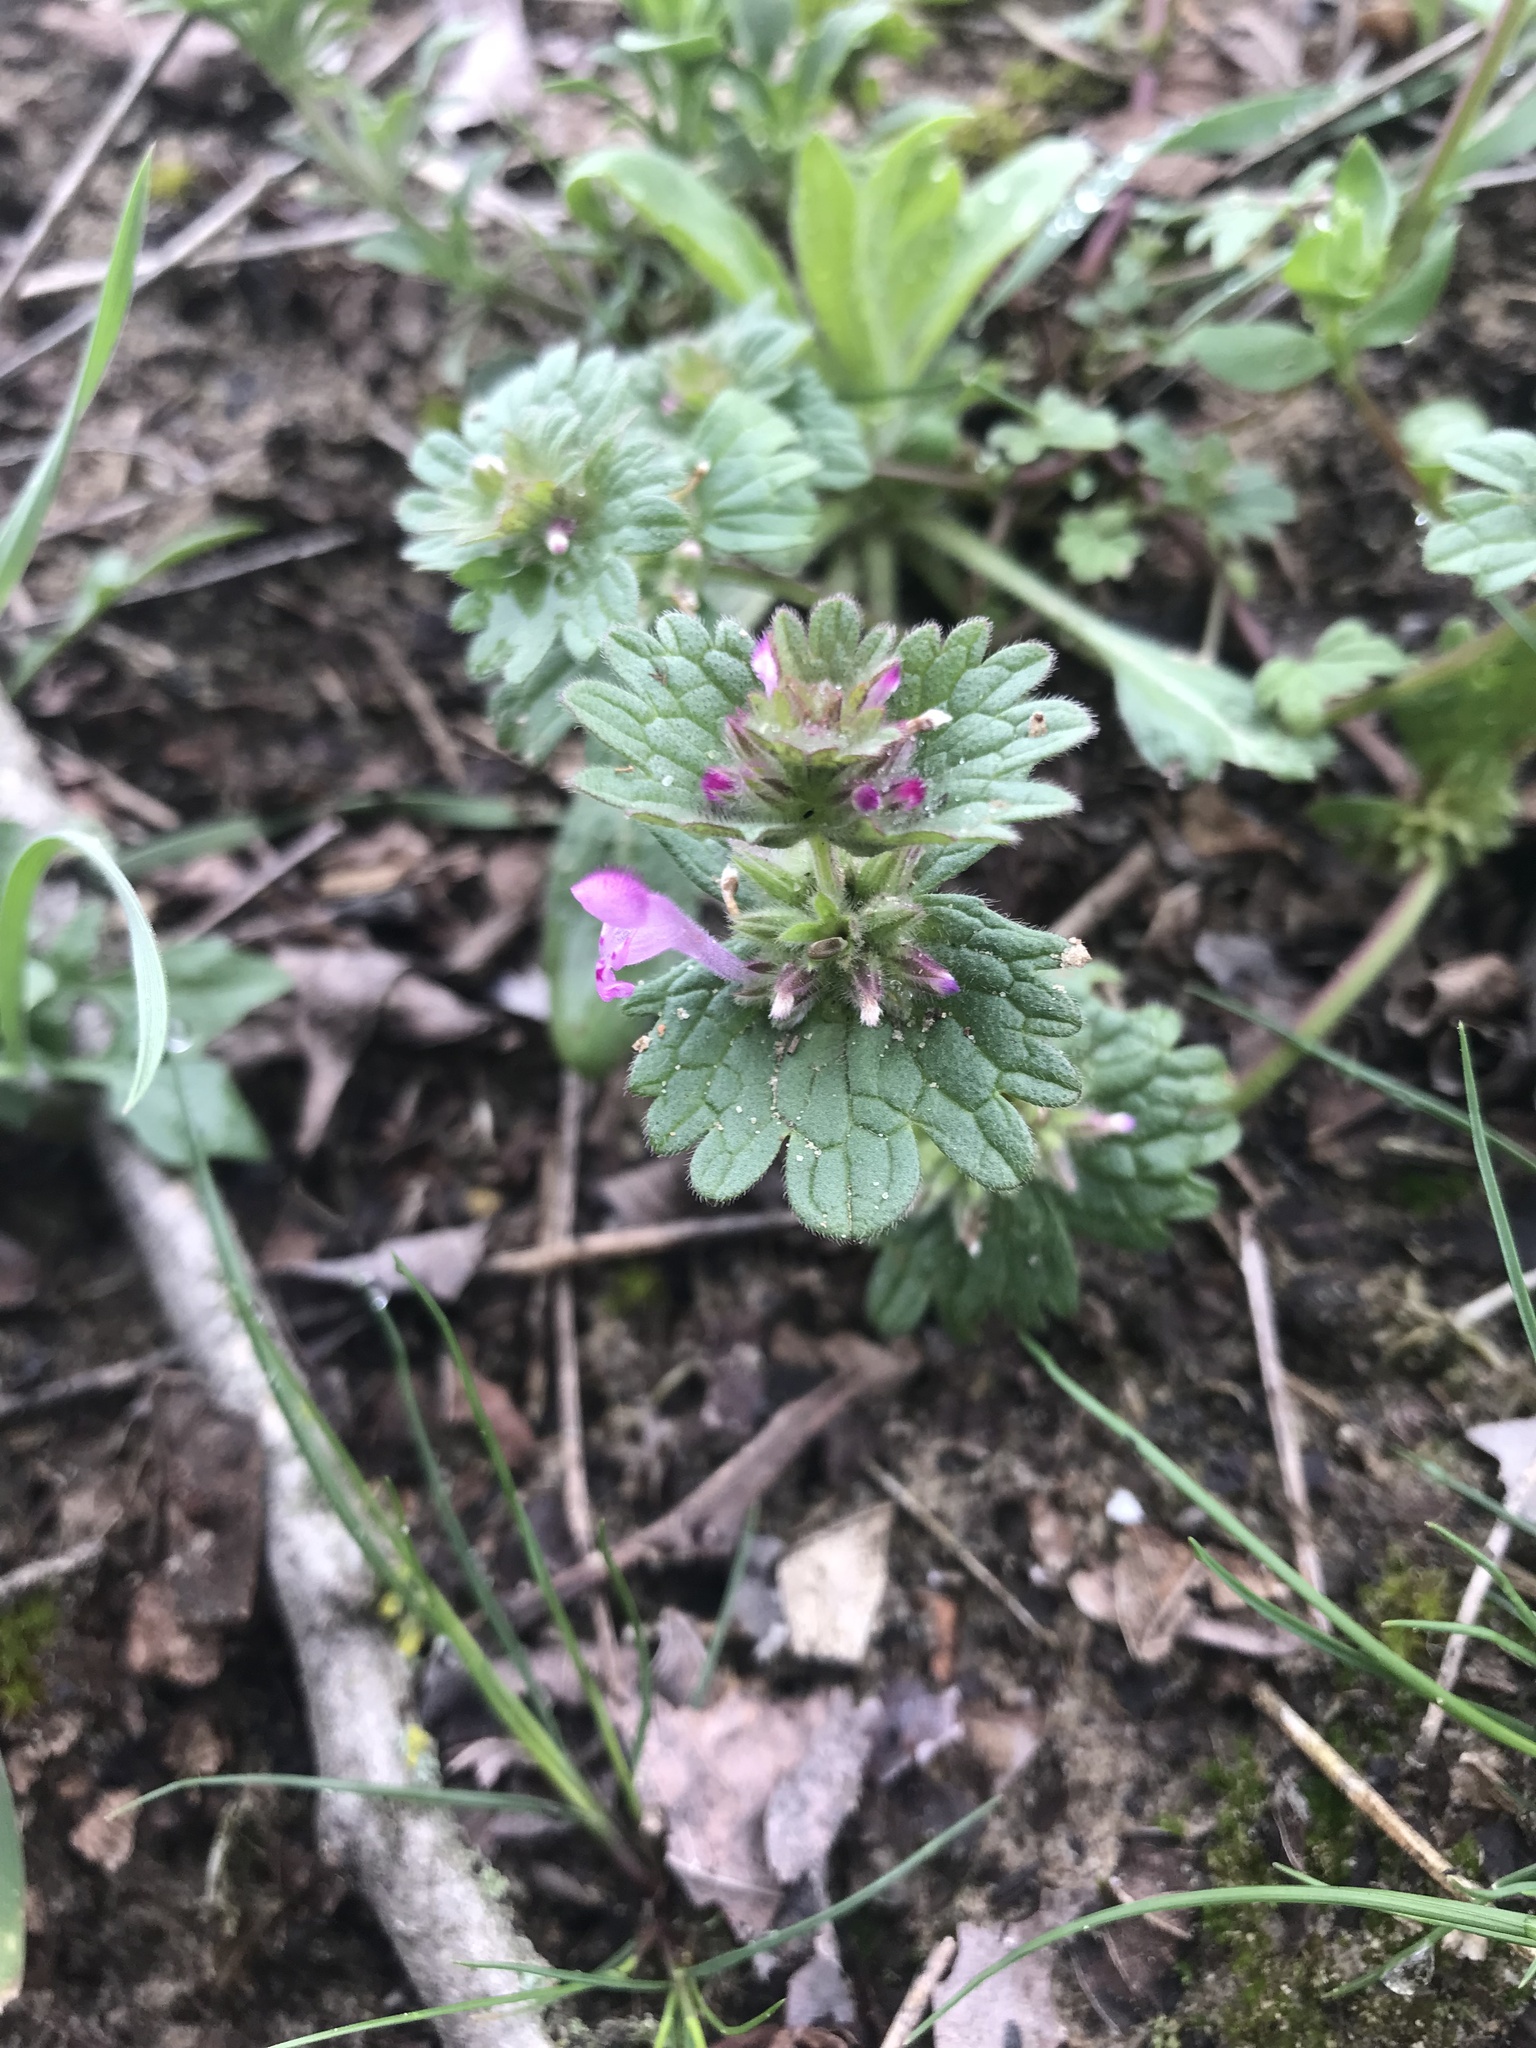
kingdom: Plantae
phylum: Tracheophyta
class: Magnoliopsida
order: Lamiales
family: Lamiaceae
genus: Lamium
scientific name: Lamium amplexicaule
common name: Henbit dead-nettle
